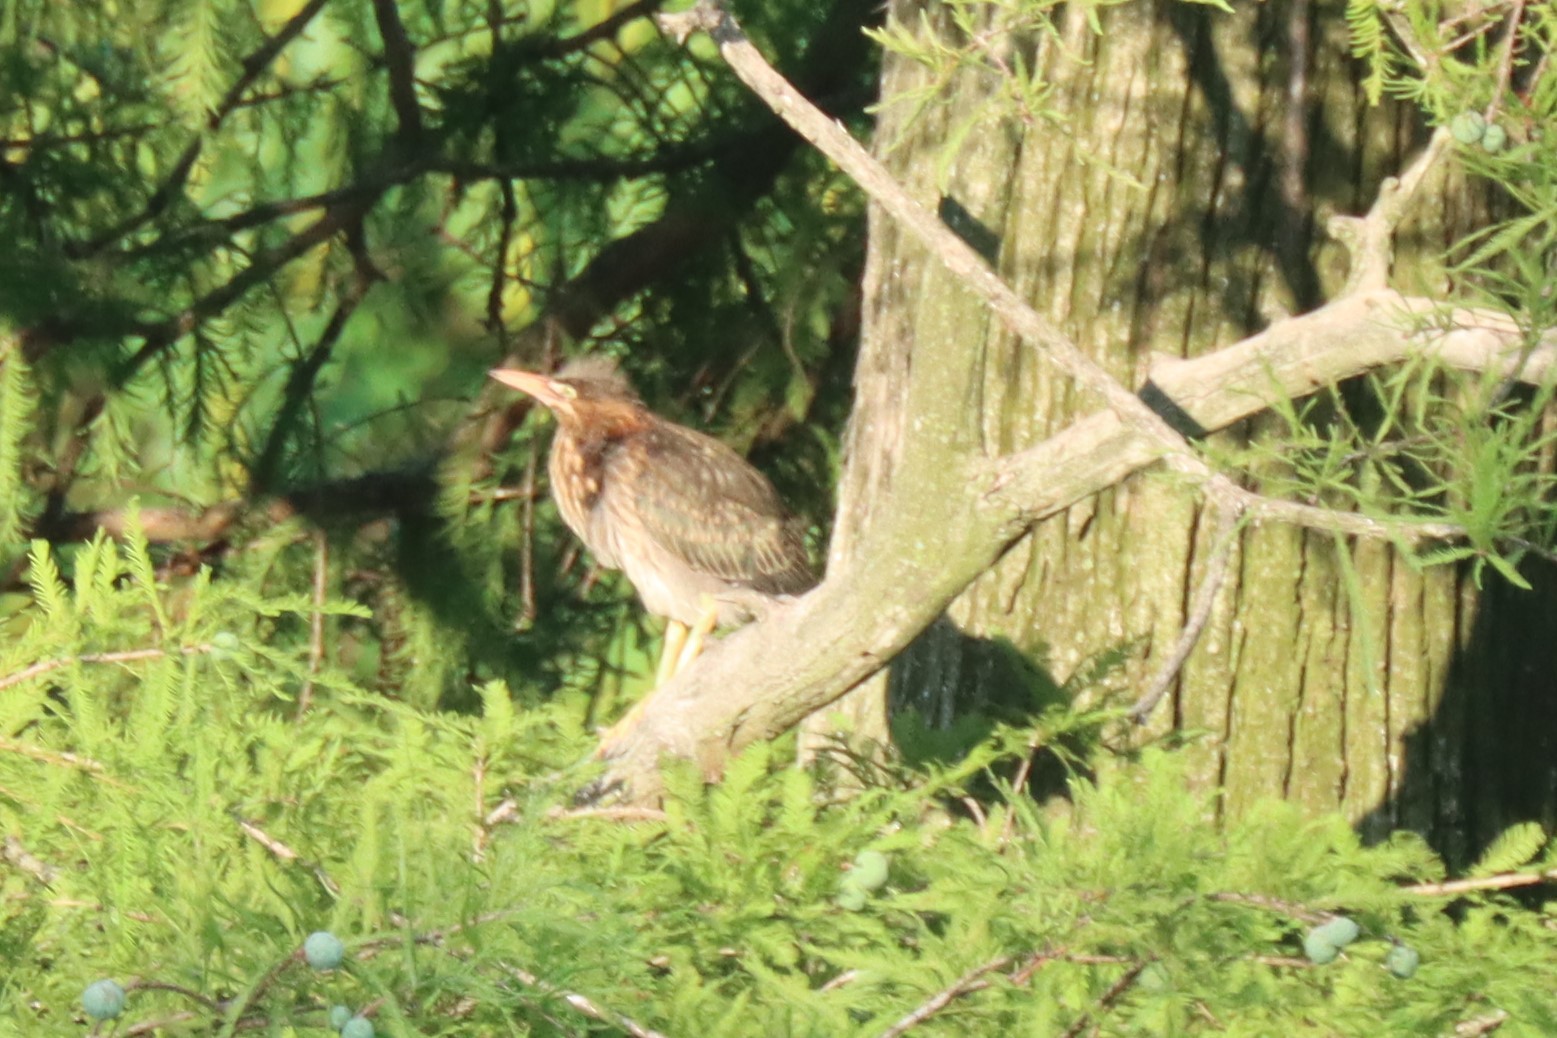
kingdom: Animalia
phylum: Chordata
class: Aves
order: Pelecaniformes
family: Ardeidae
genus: Butorides
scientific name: Butorides virescens
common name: Green heron
